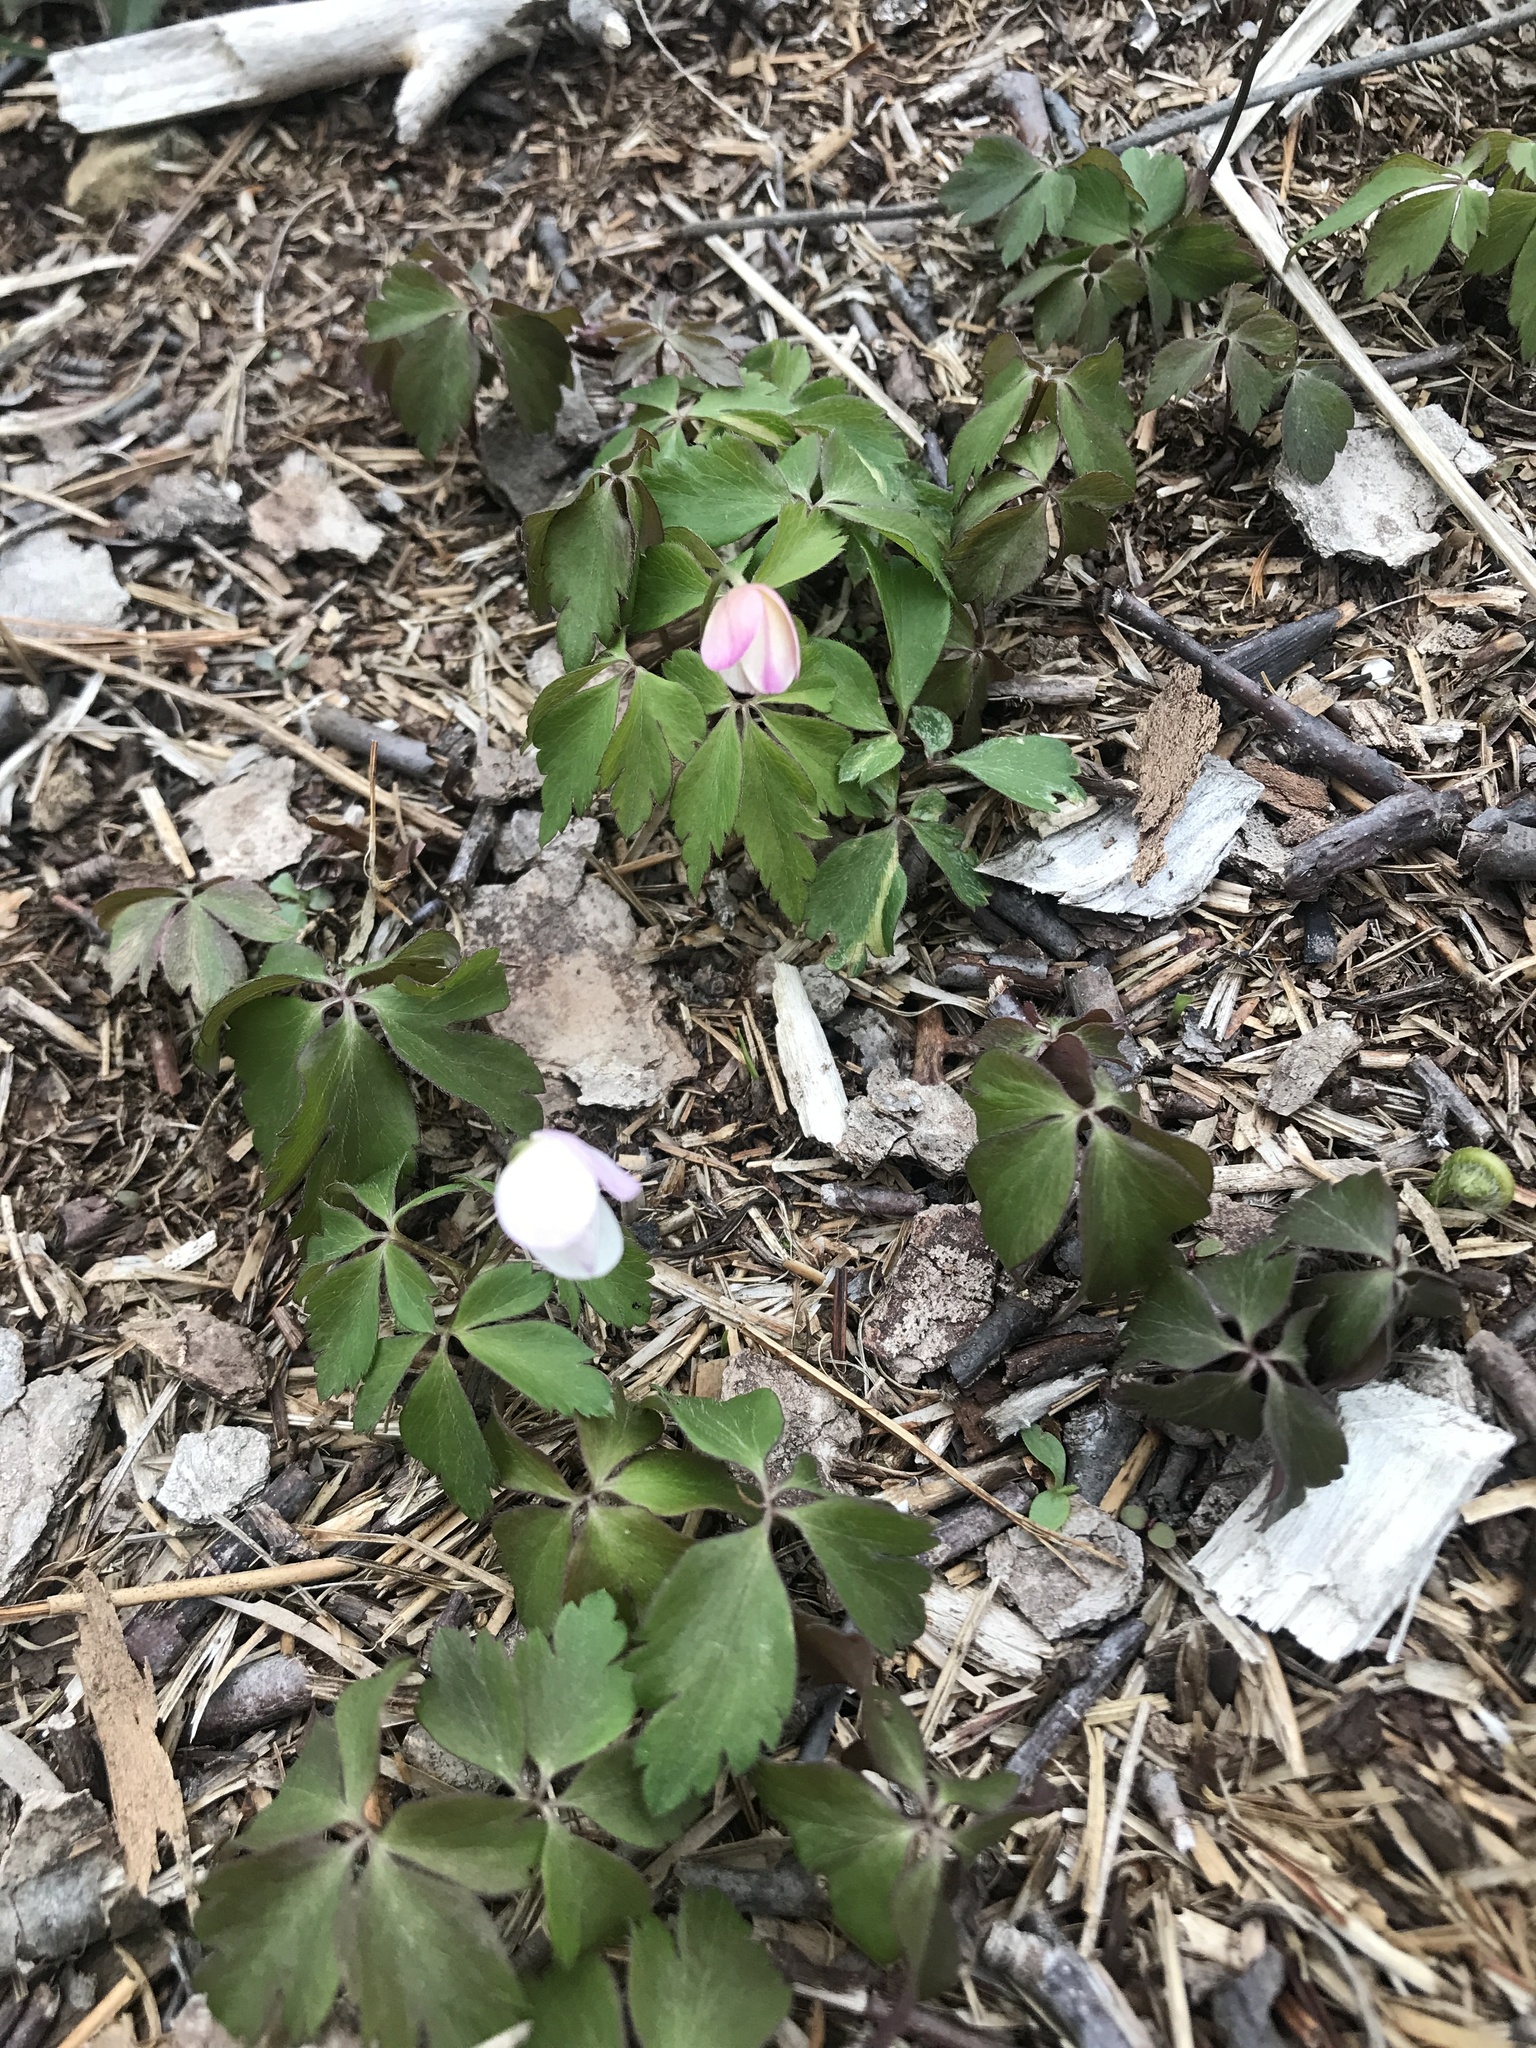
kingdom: Plantae
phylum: Tracheophyta
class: Magnoliopsida
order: Ranunculales
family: Ranunculaceae
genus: Anemone
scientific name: Anemone quinquefolia
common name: Wood anemone
